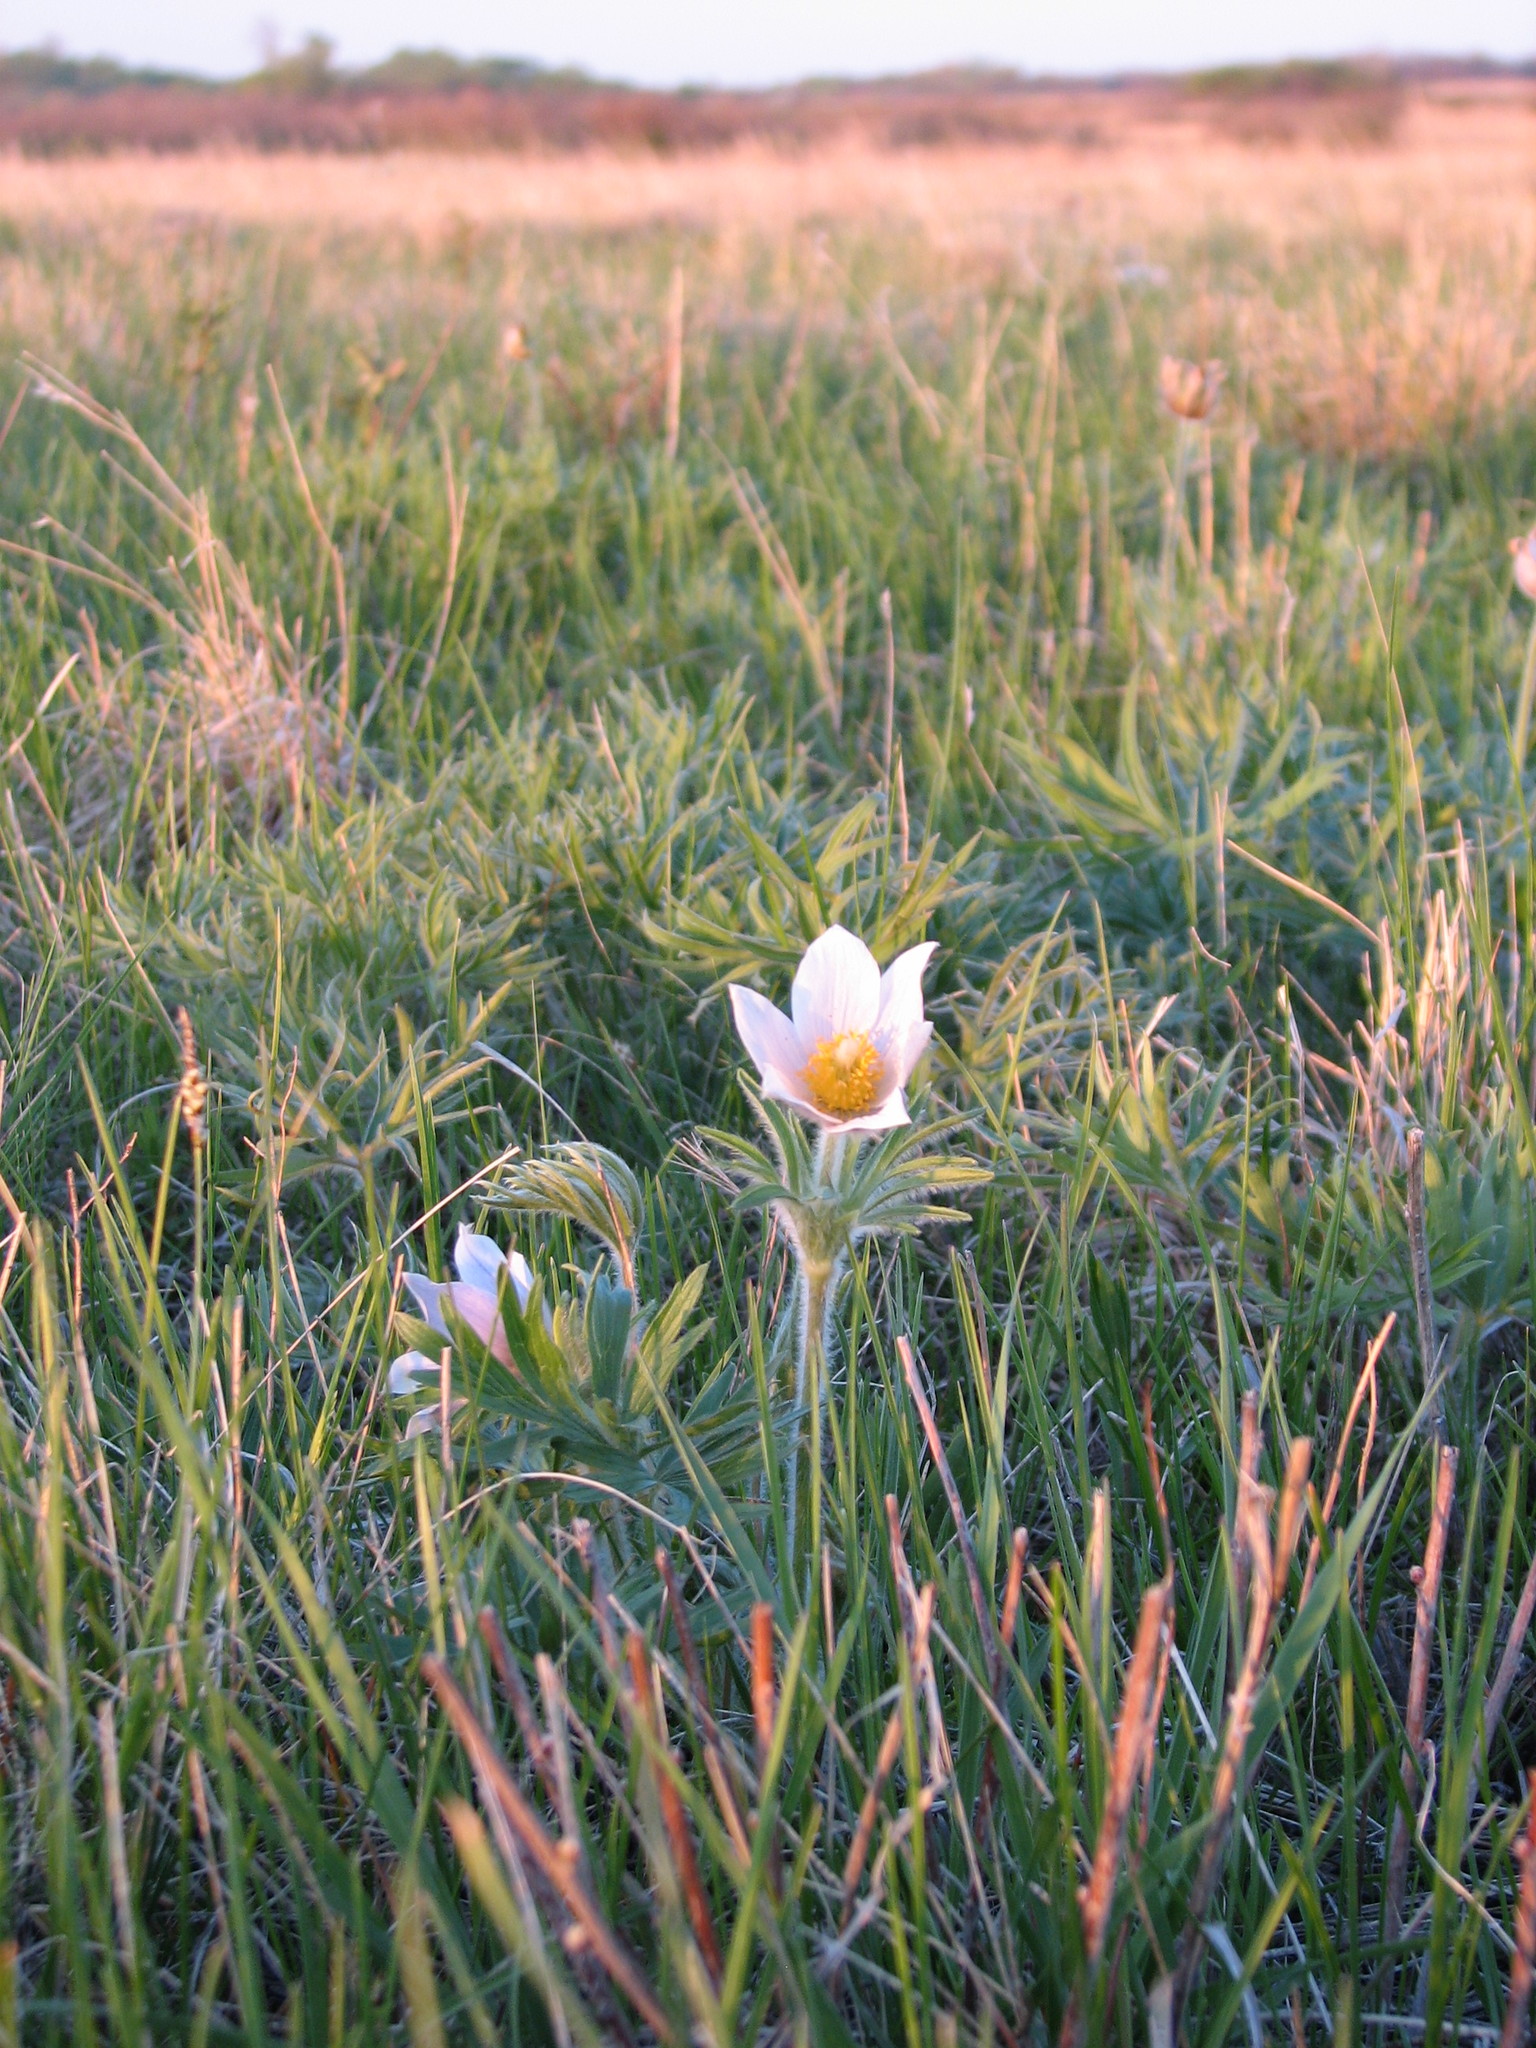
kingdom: Plantae
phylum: Tracheophyta
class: Magnoliopsida
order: Ranunculales
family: Ranunculaceae
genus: Pulsatilla
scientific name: Pulsatilla nuttalliana
